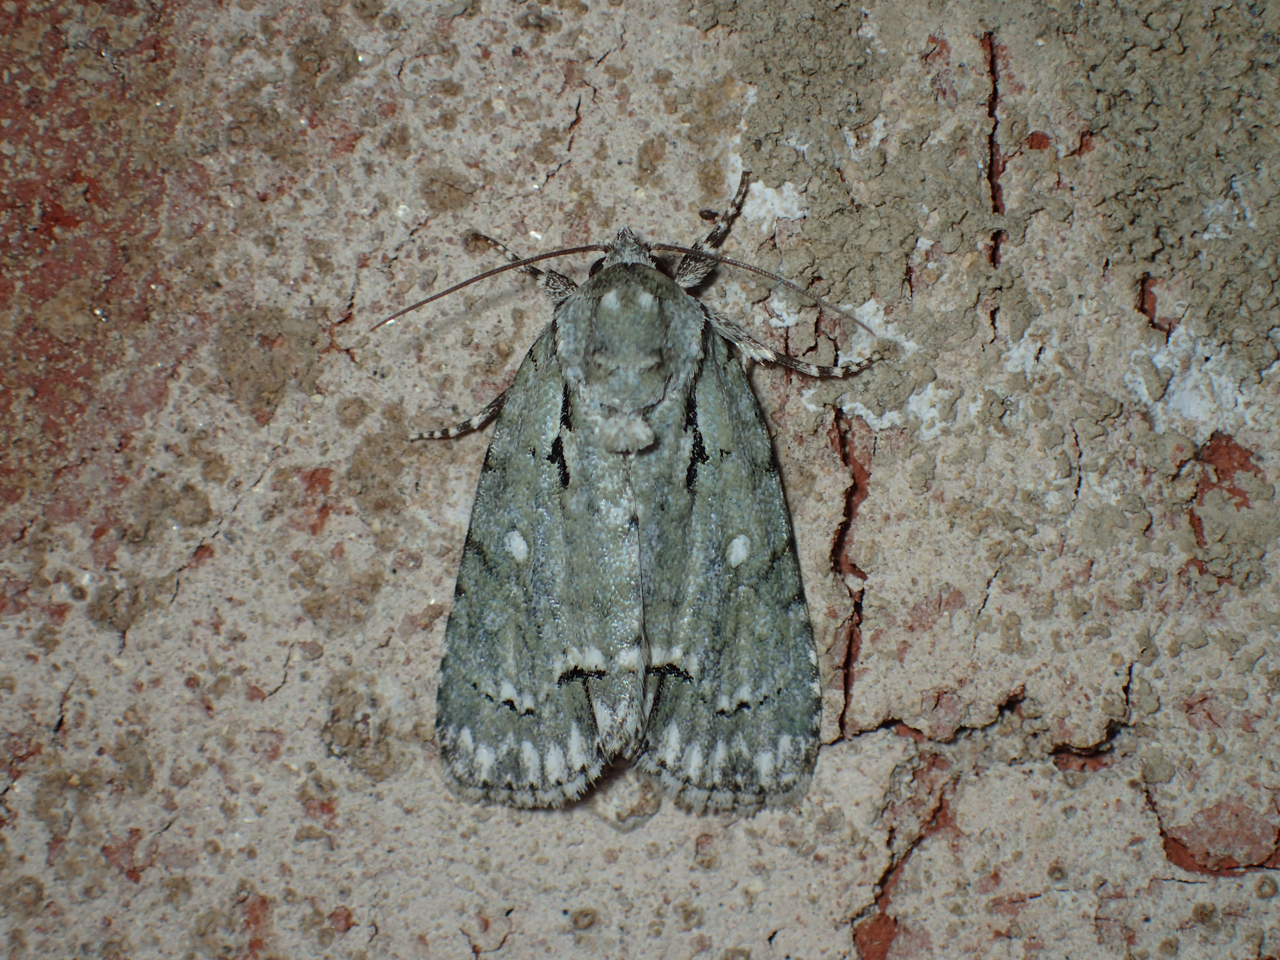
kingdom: Animalia
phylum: Arthropoda
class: Insecta
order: Lepidoptera
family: Noctuidae
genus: Acronicta
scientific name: Acronicta vinnula
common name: Delightful dagger
